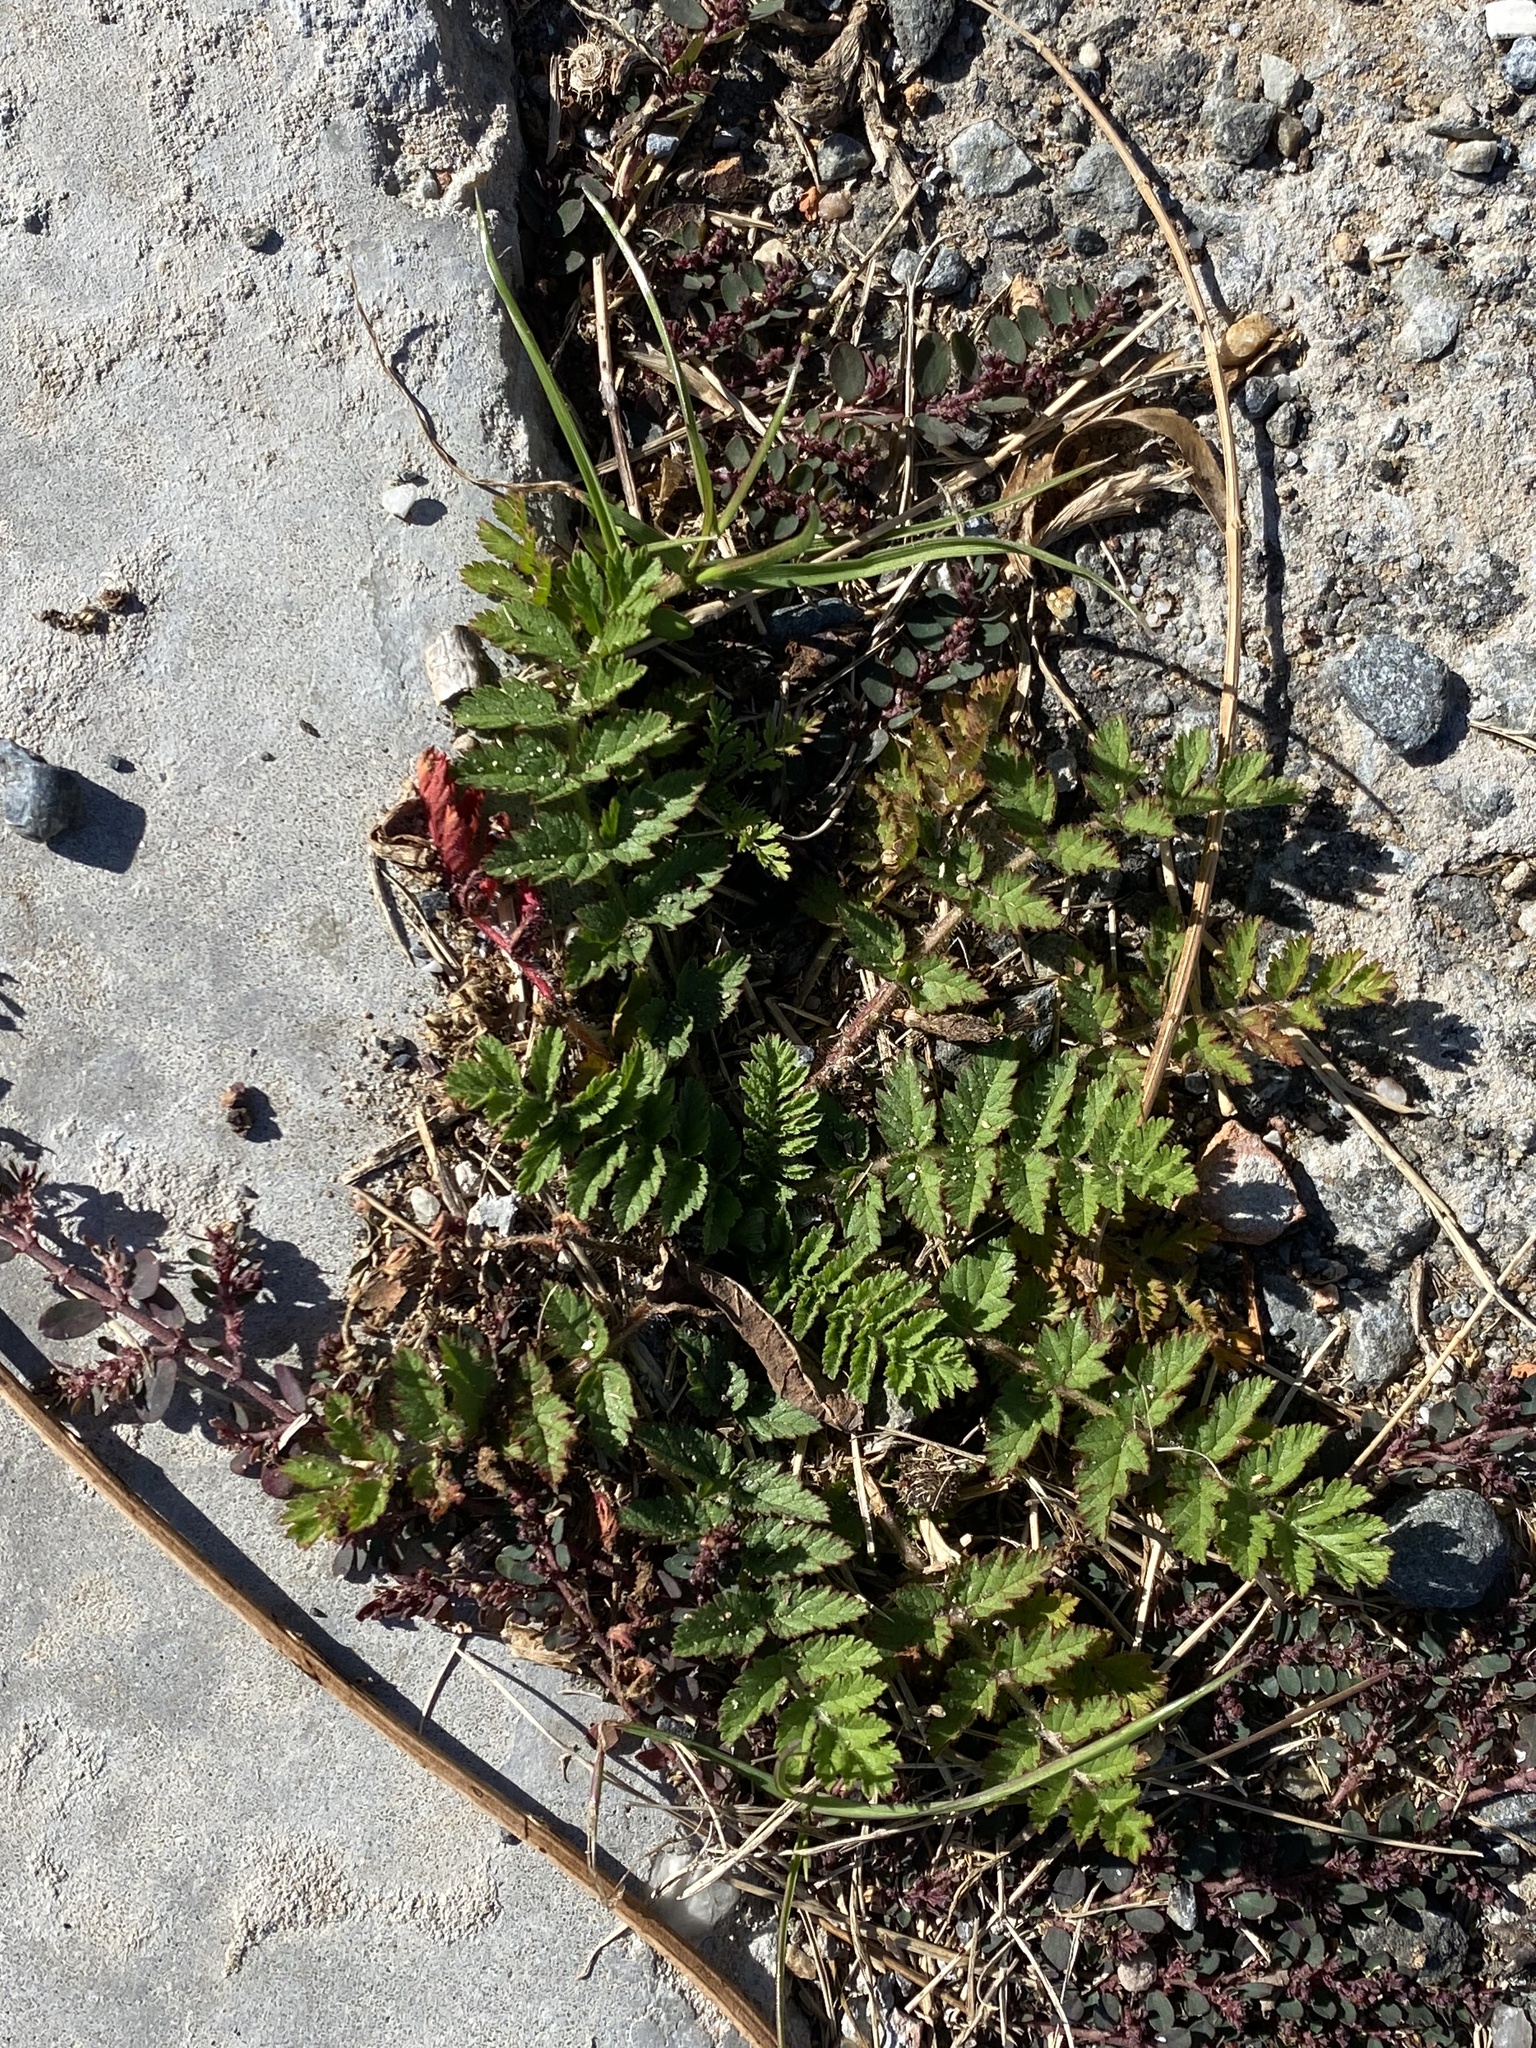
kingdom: Plantae
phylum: Tracheophyta
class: Magnoliopsida
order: Geraniales
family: Geraniaceae
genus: Erodium
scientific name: Erodium moschatum
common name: Musk stork's-bill
